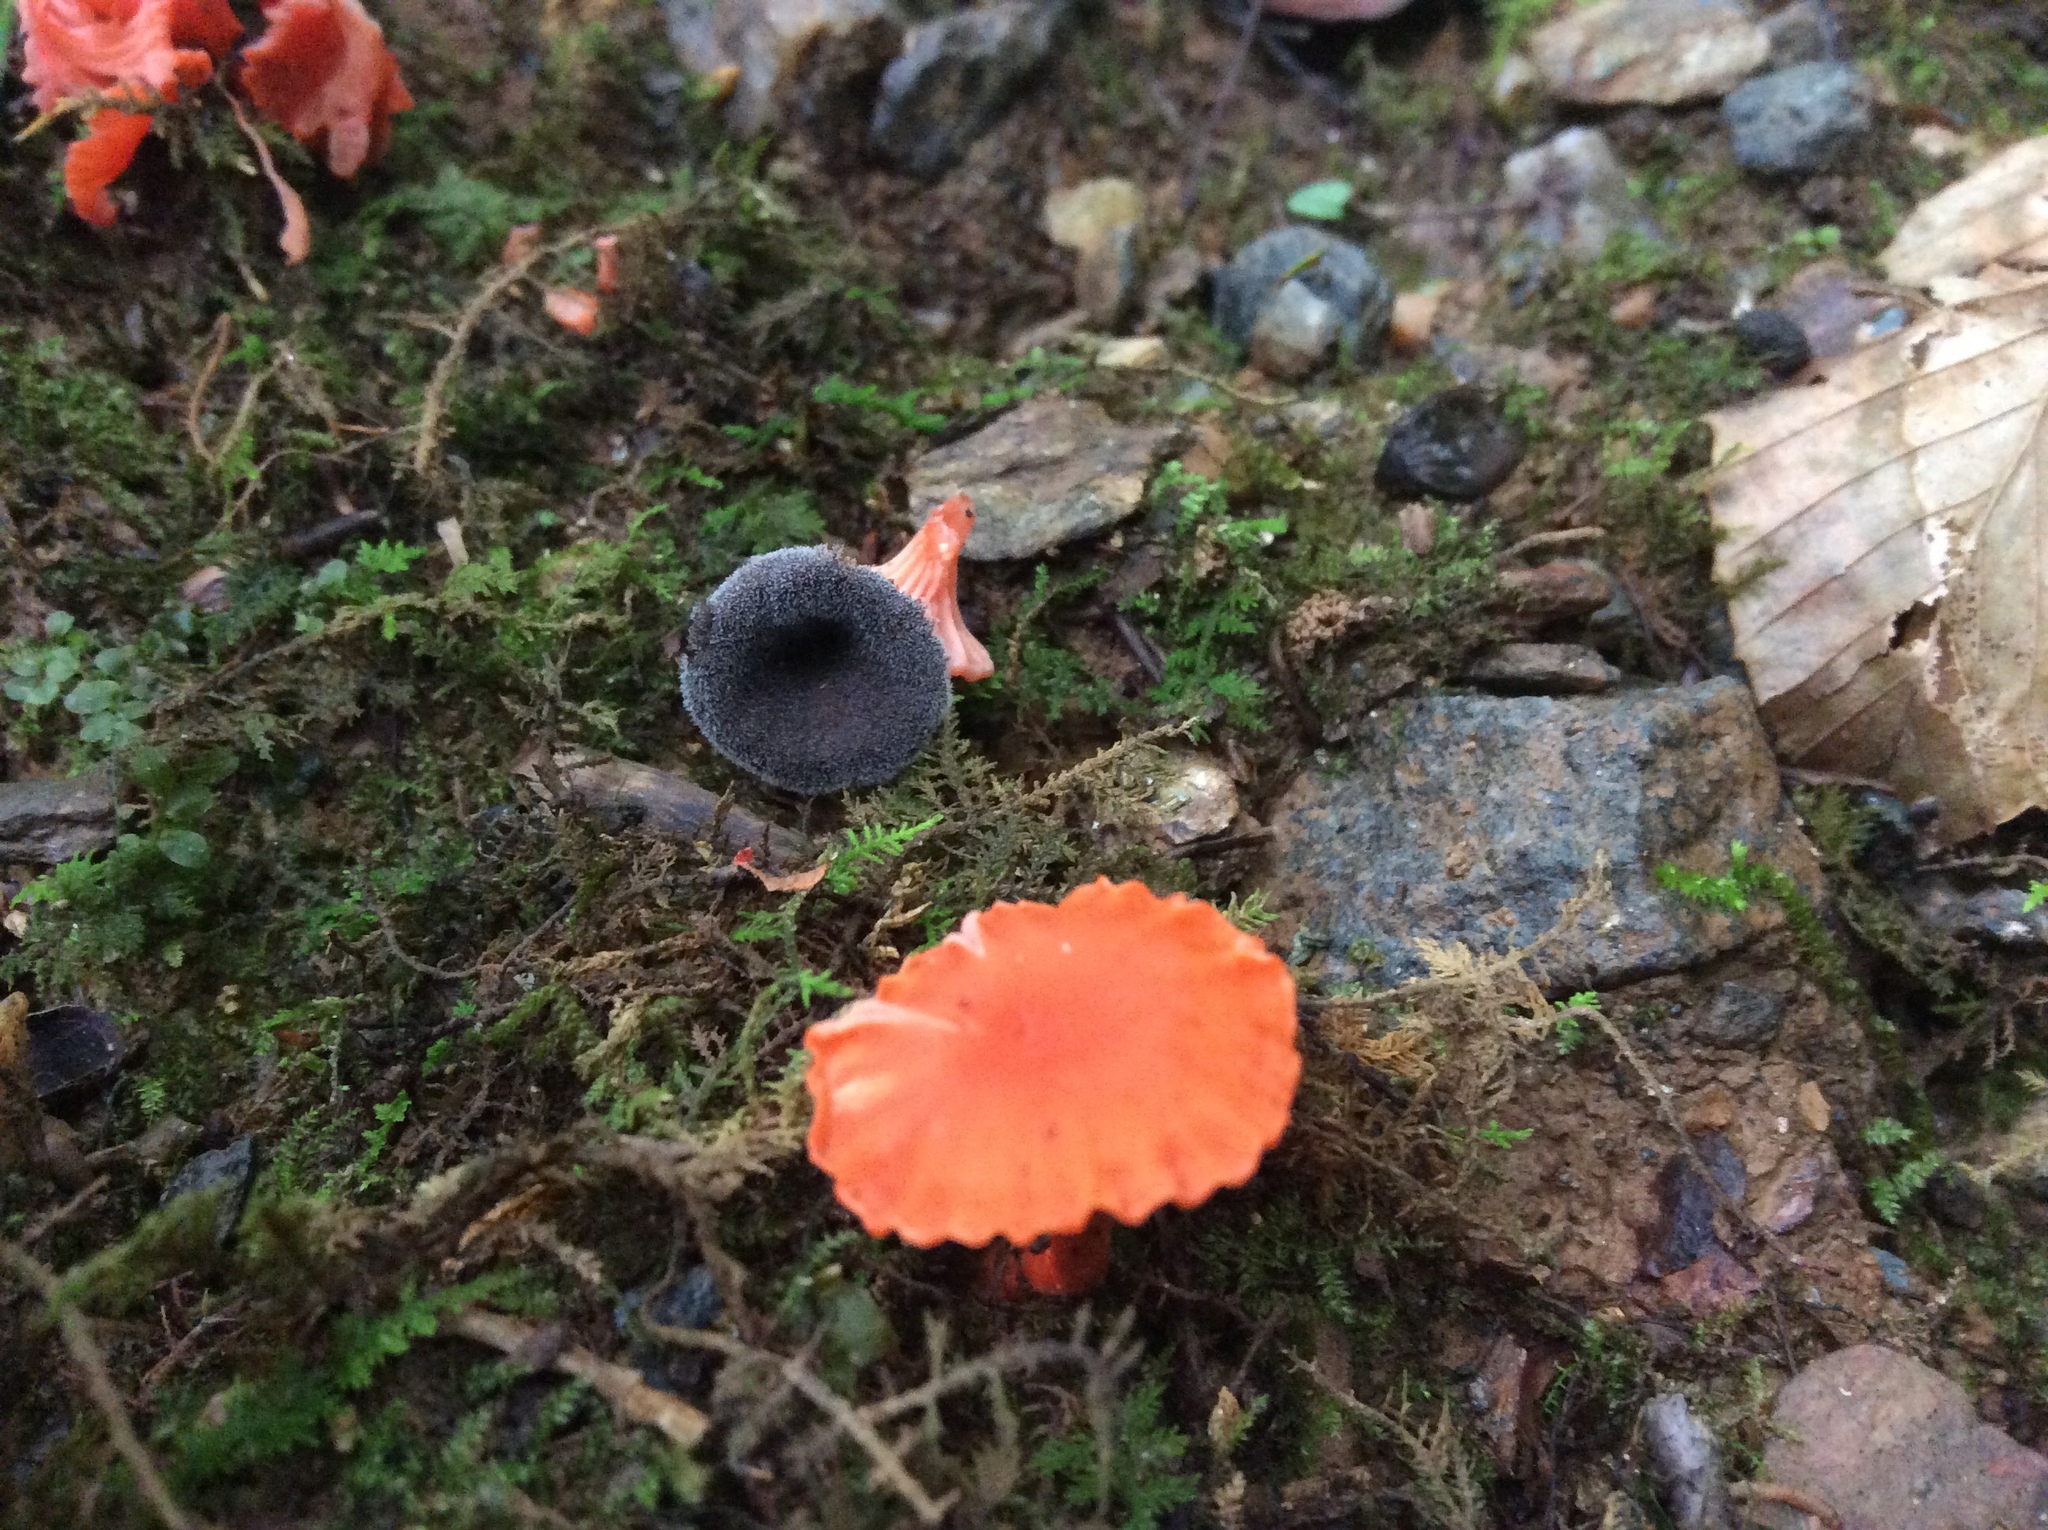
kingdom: Fungi
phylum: Basidiomycota
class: Agaricomycetes
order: Cantharellales
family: Hydnaceae
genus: Cantharellus
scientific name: Cantharellus cinnabarinus
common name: Cinnabar chanterelle
